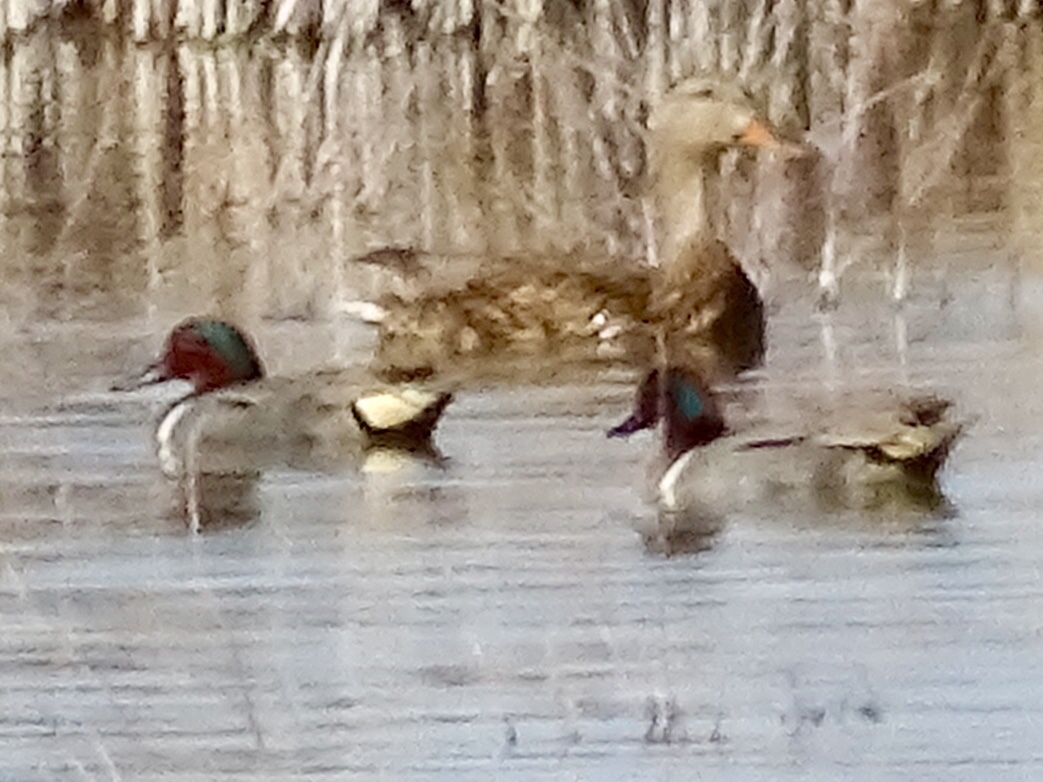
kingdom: Animalia
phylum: Chordata
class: Aves
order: Anseriformes
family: Anatidae
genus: Anas
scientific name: Anas crecca
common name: Eurasian teal
